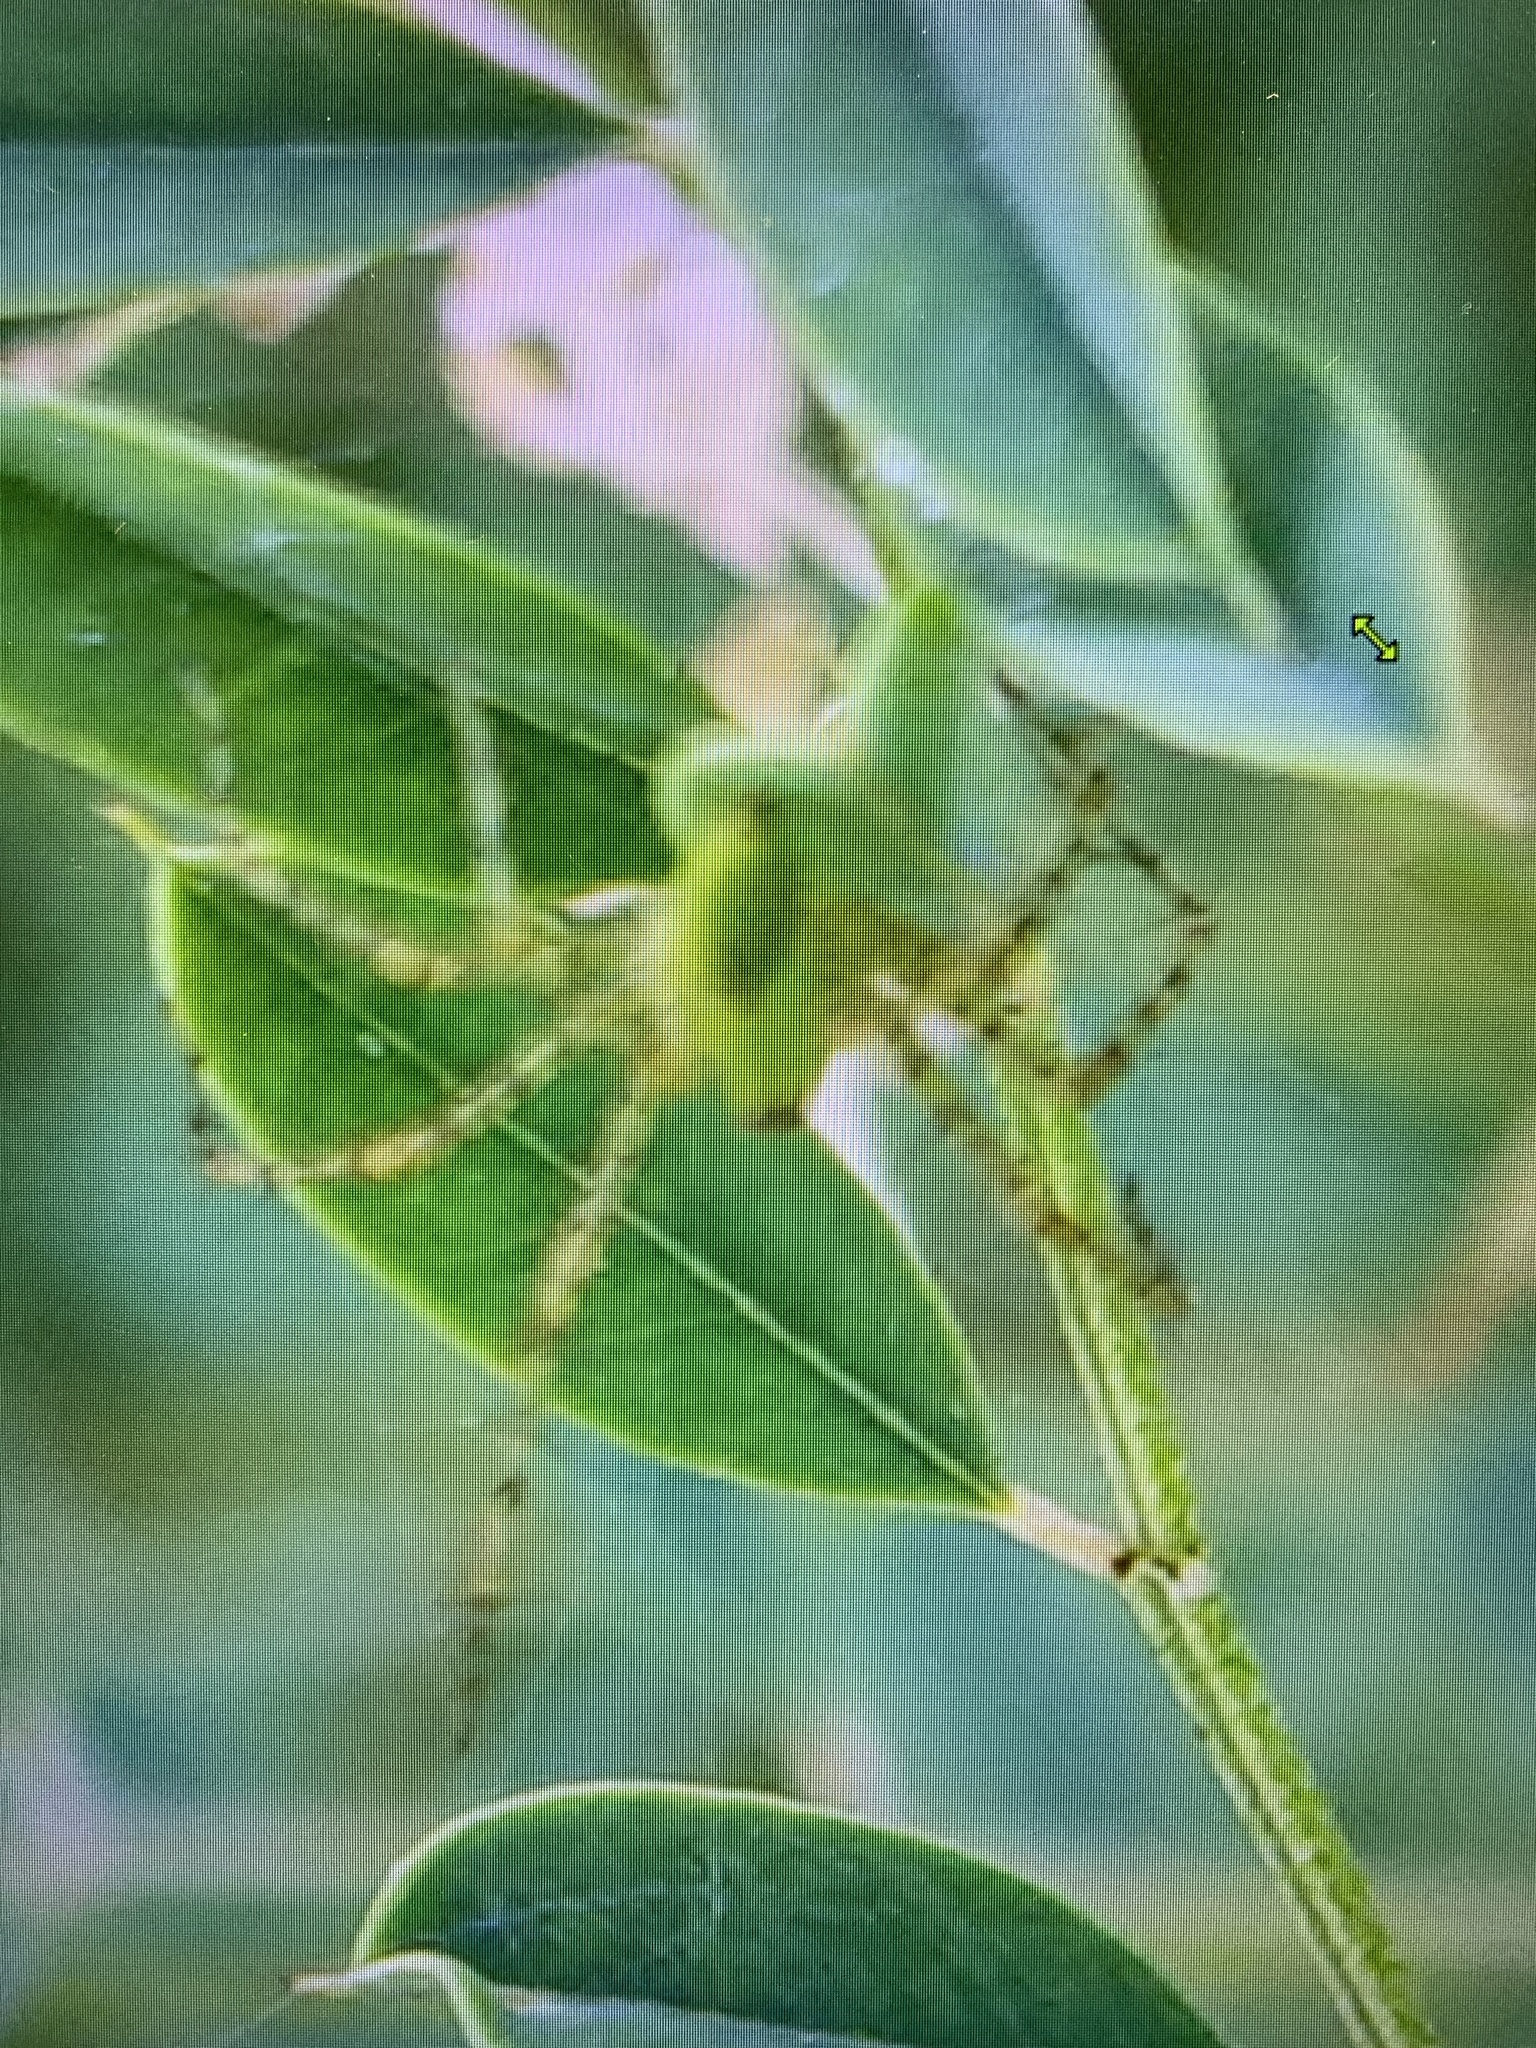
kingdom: Animalia
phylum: Arthropoda
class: Arachnida
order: Araneae
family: Oxyopidae
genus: Peucetia
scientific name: Peucetia viridans
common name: Lynx spiders
